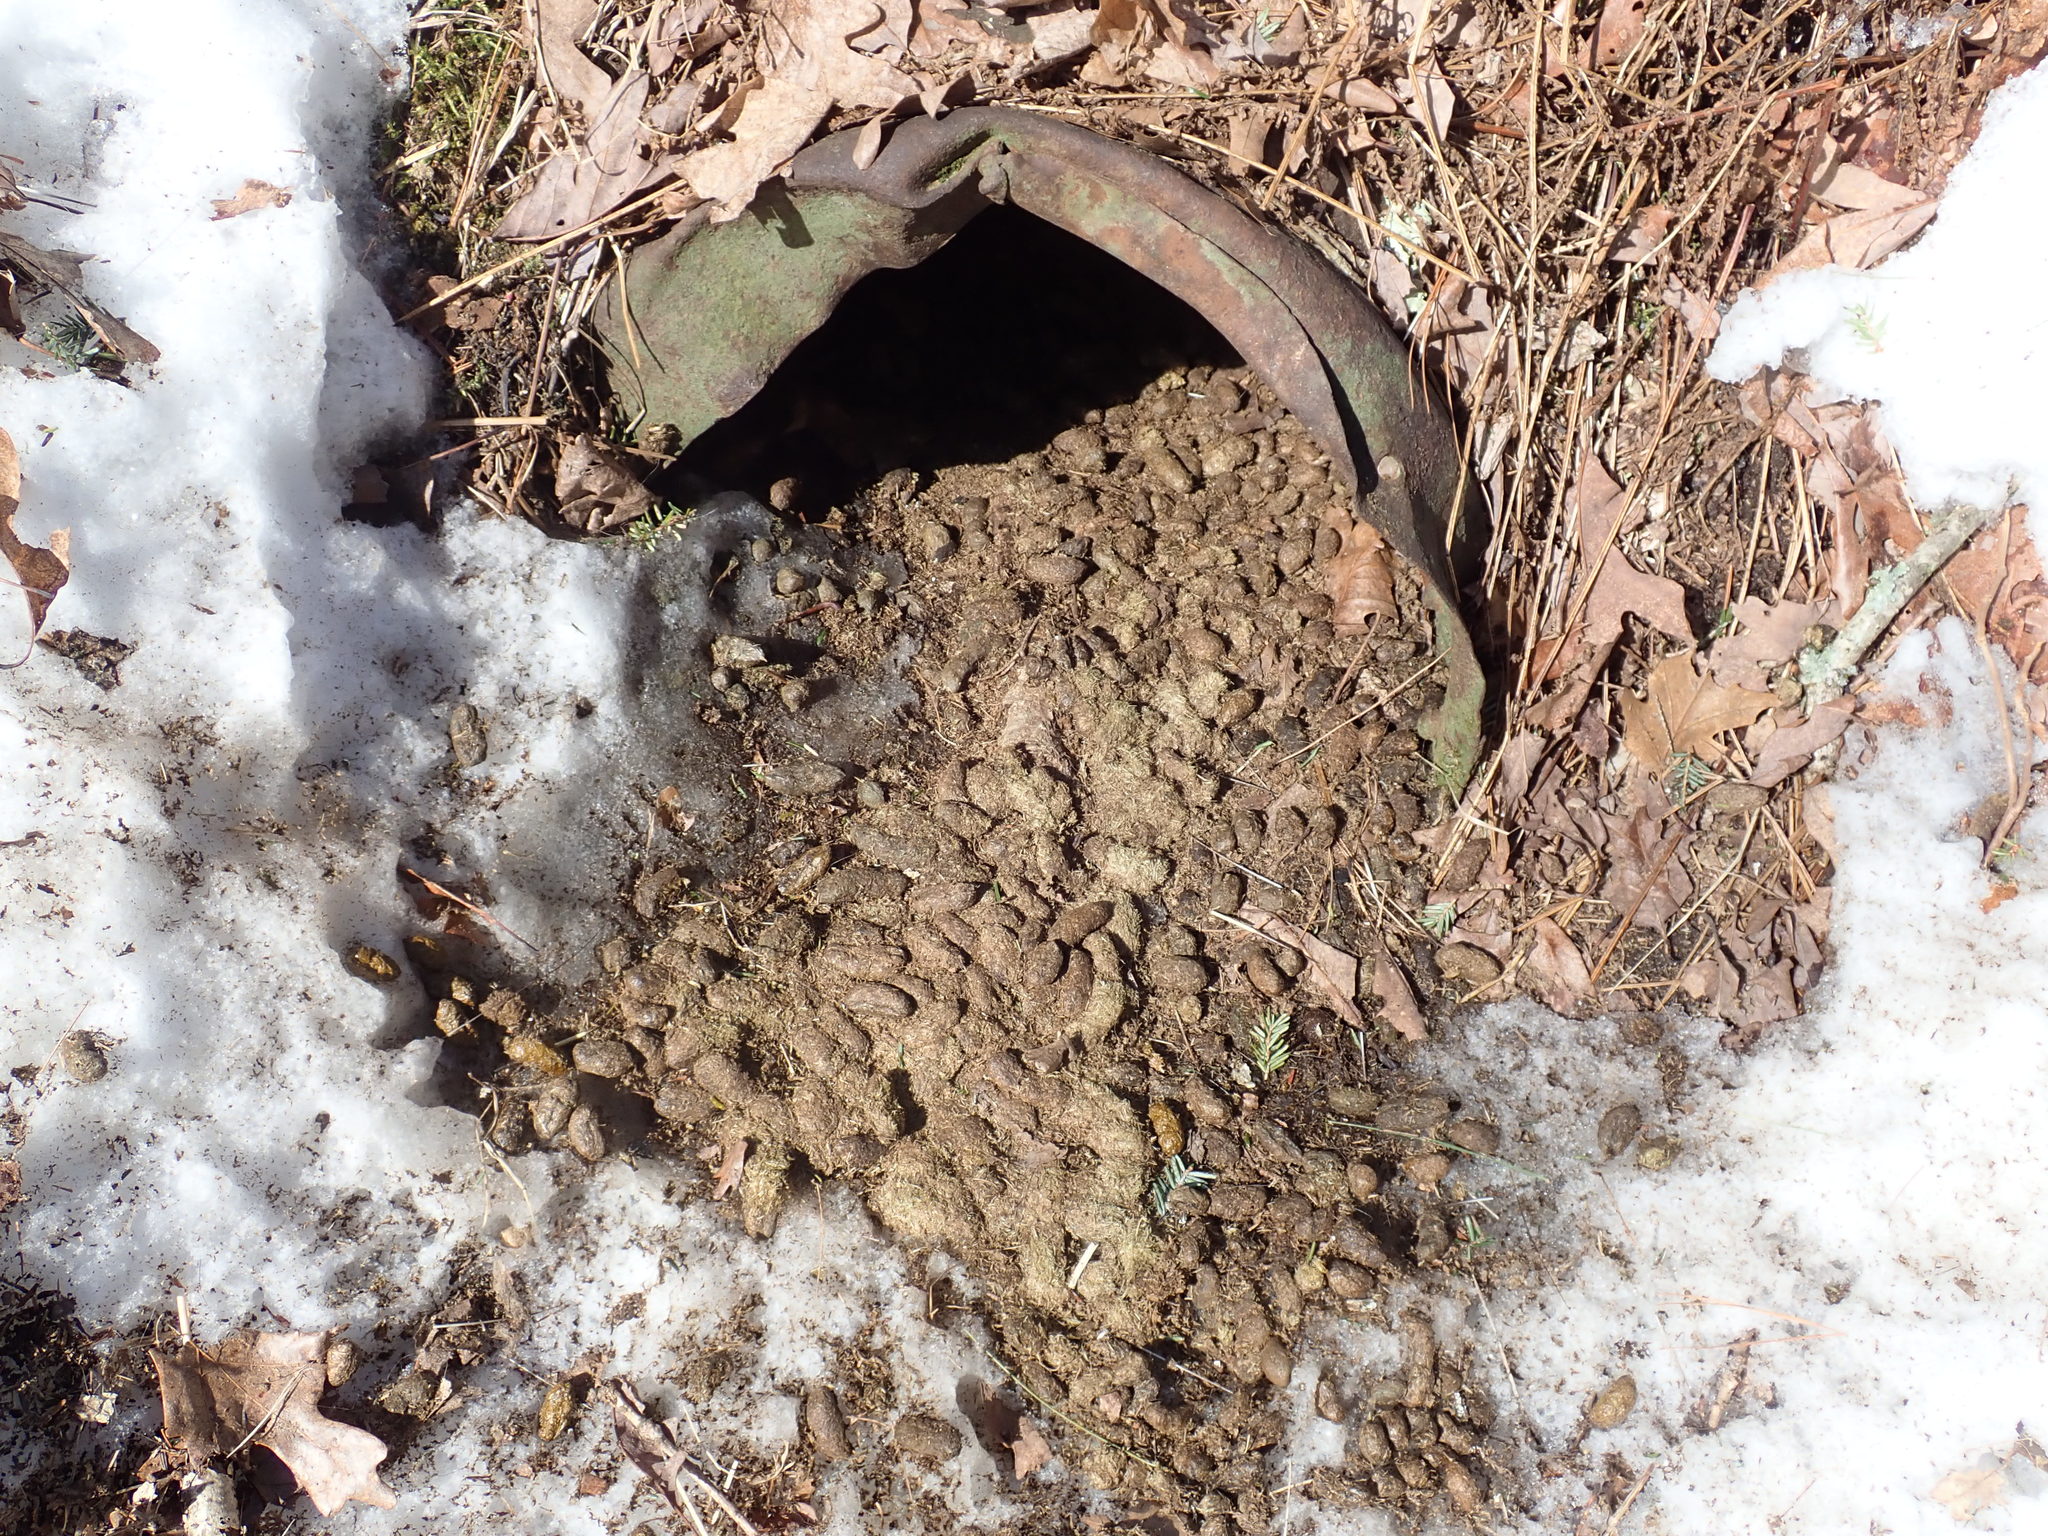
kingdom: Animalia
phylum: Chordata
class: Mammalia
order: Rodentia
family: Erethizontidae
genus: Erethizon
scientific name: Erethizon dorsatus
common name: North american porcupine
